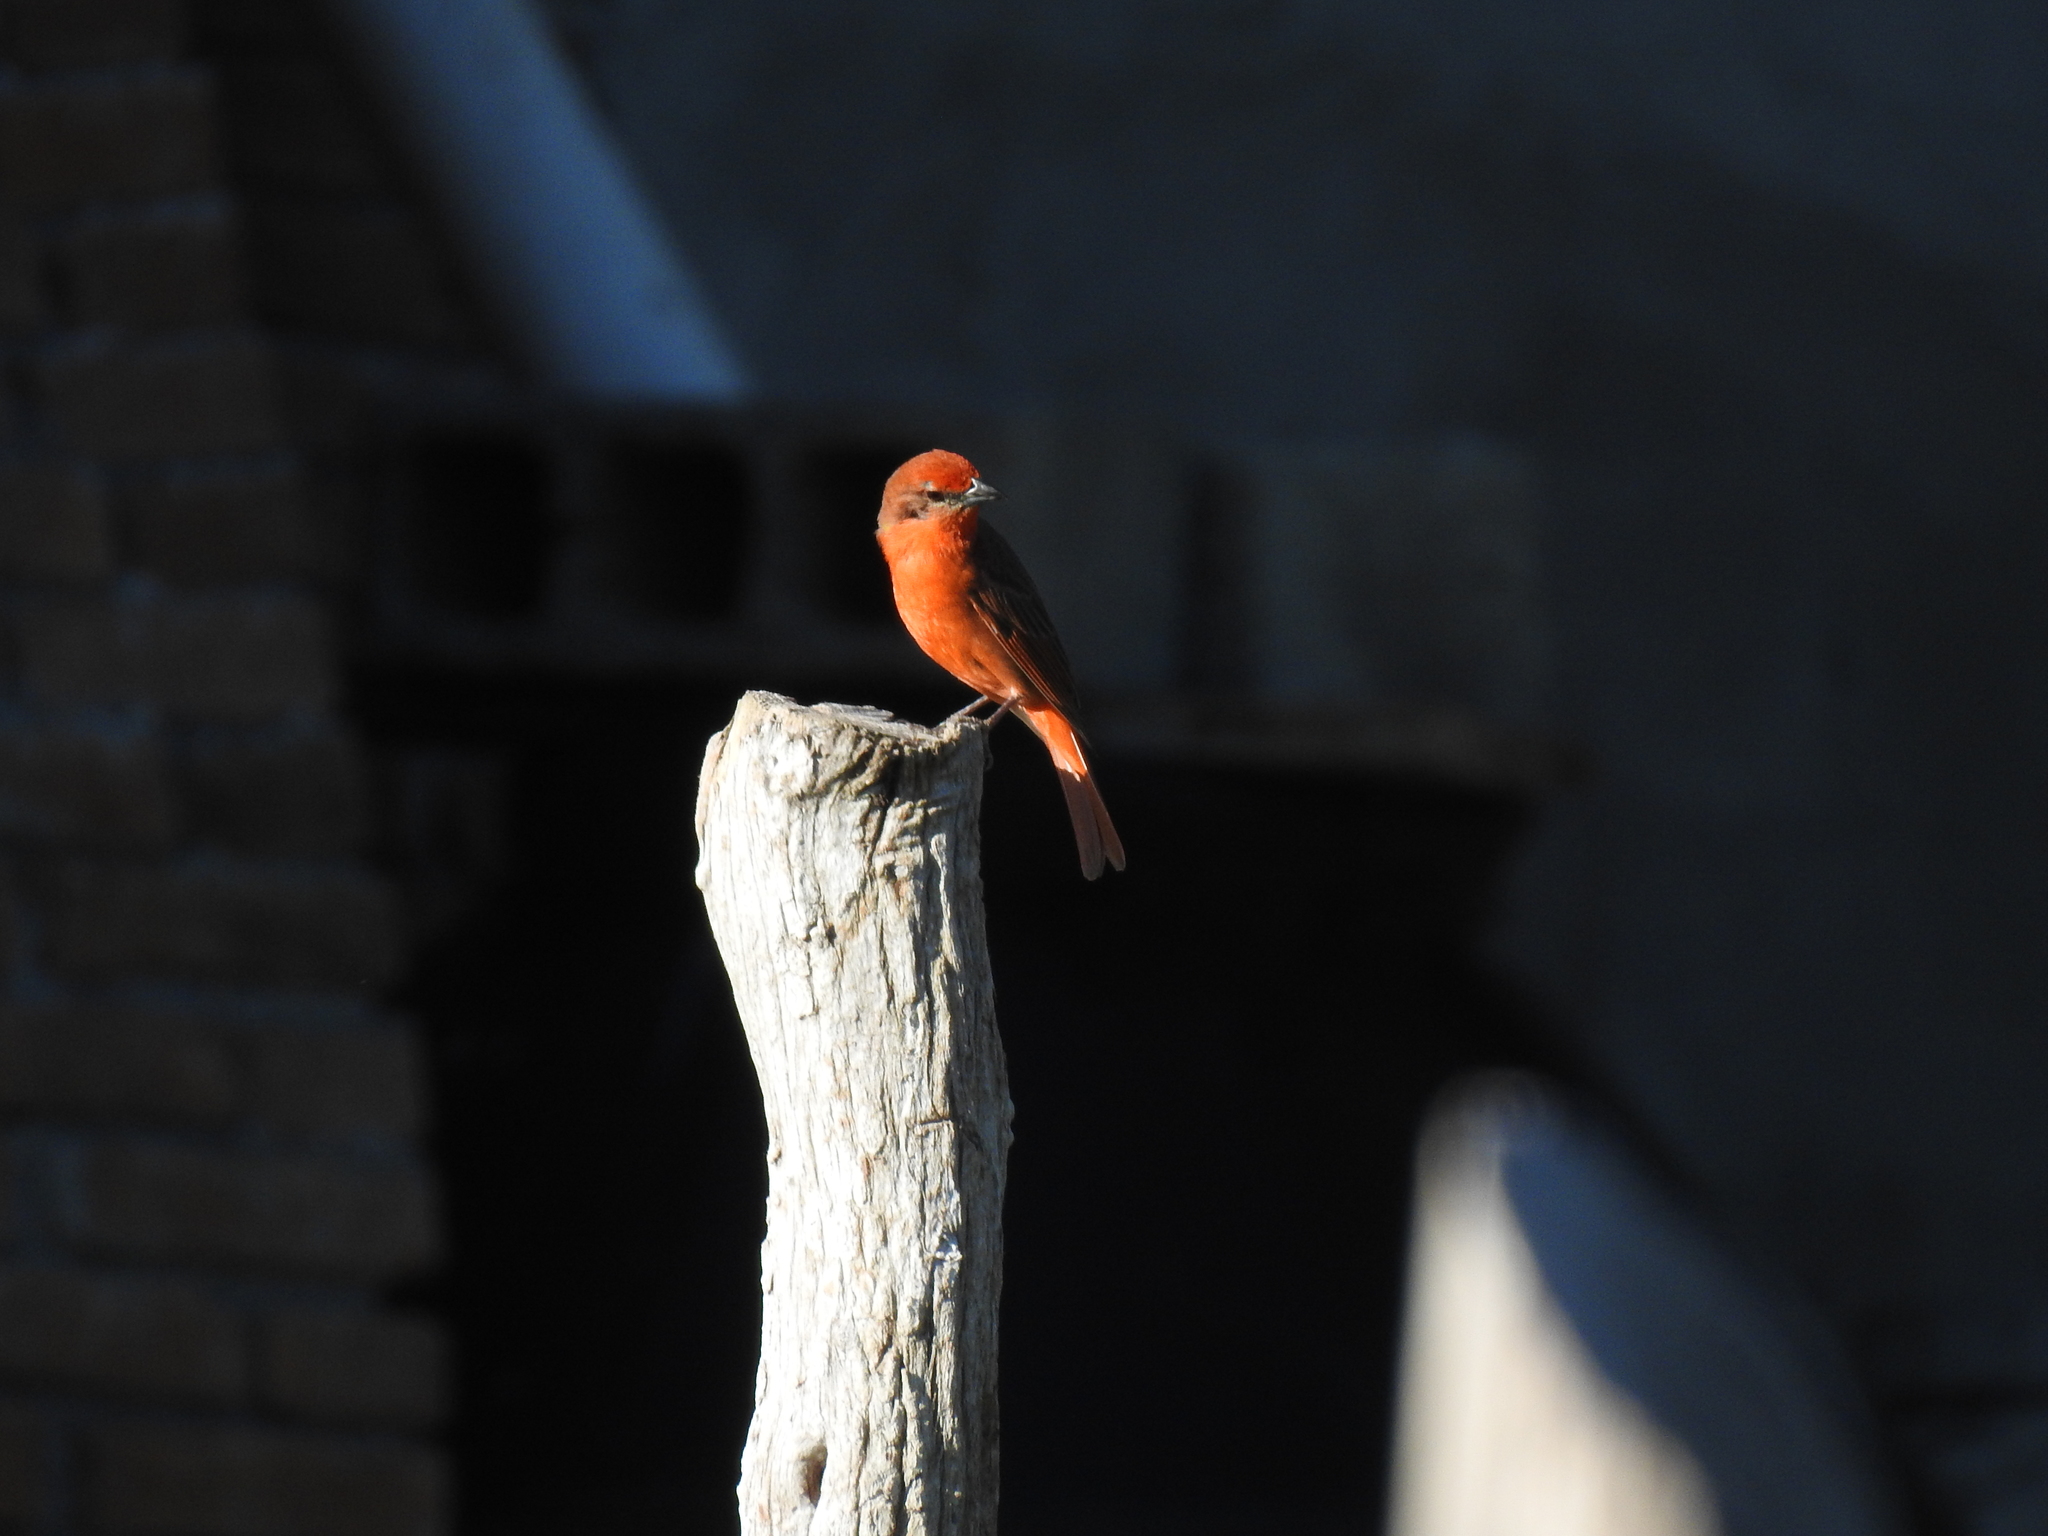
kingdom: Animalia
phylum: Chordata
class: Aves
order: Passeriformes
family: Cardinalidae
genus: Piranga
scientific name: Piranga flava
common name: Red tanager
